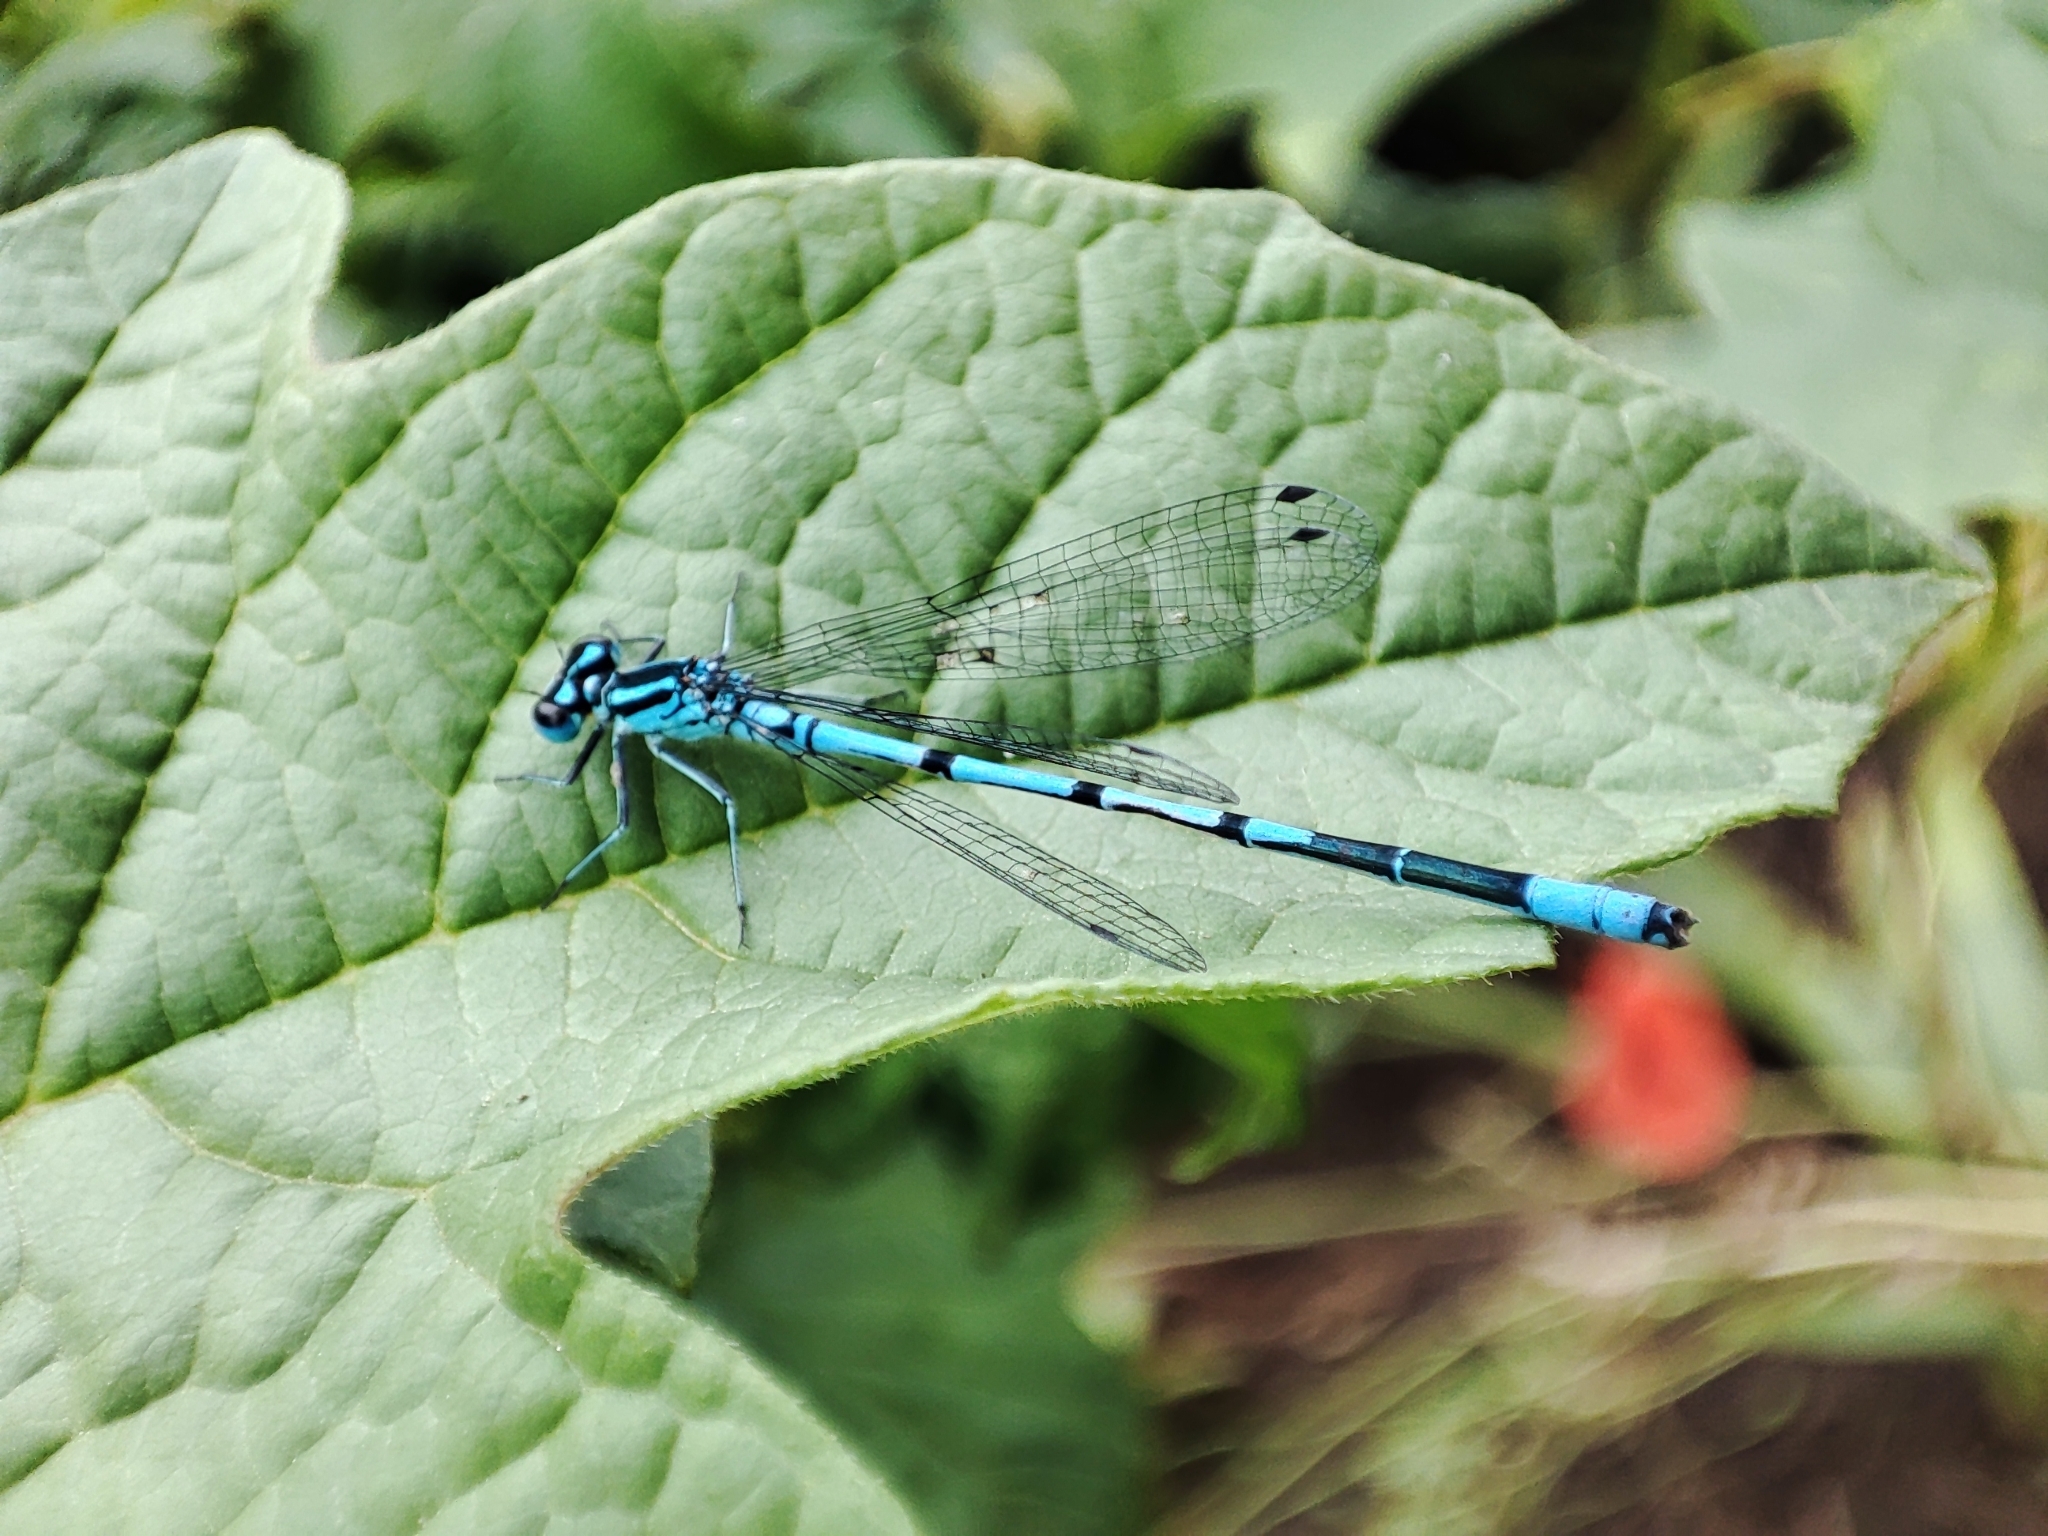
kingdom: Animalia
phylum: Arthropoda
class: Insecta
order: Odonata
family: Coenagrionidae
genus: Coenagrion
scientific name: Coenagrion puella
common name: Azure damselfly
